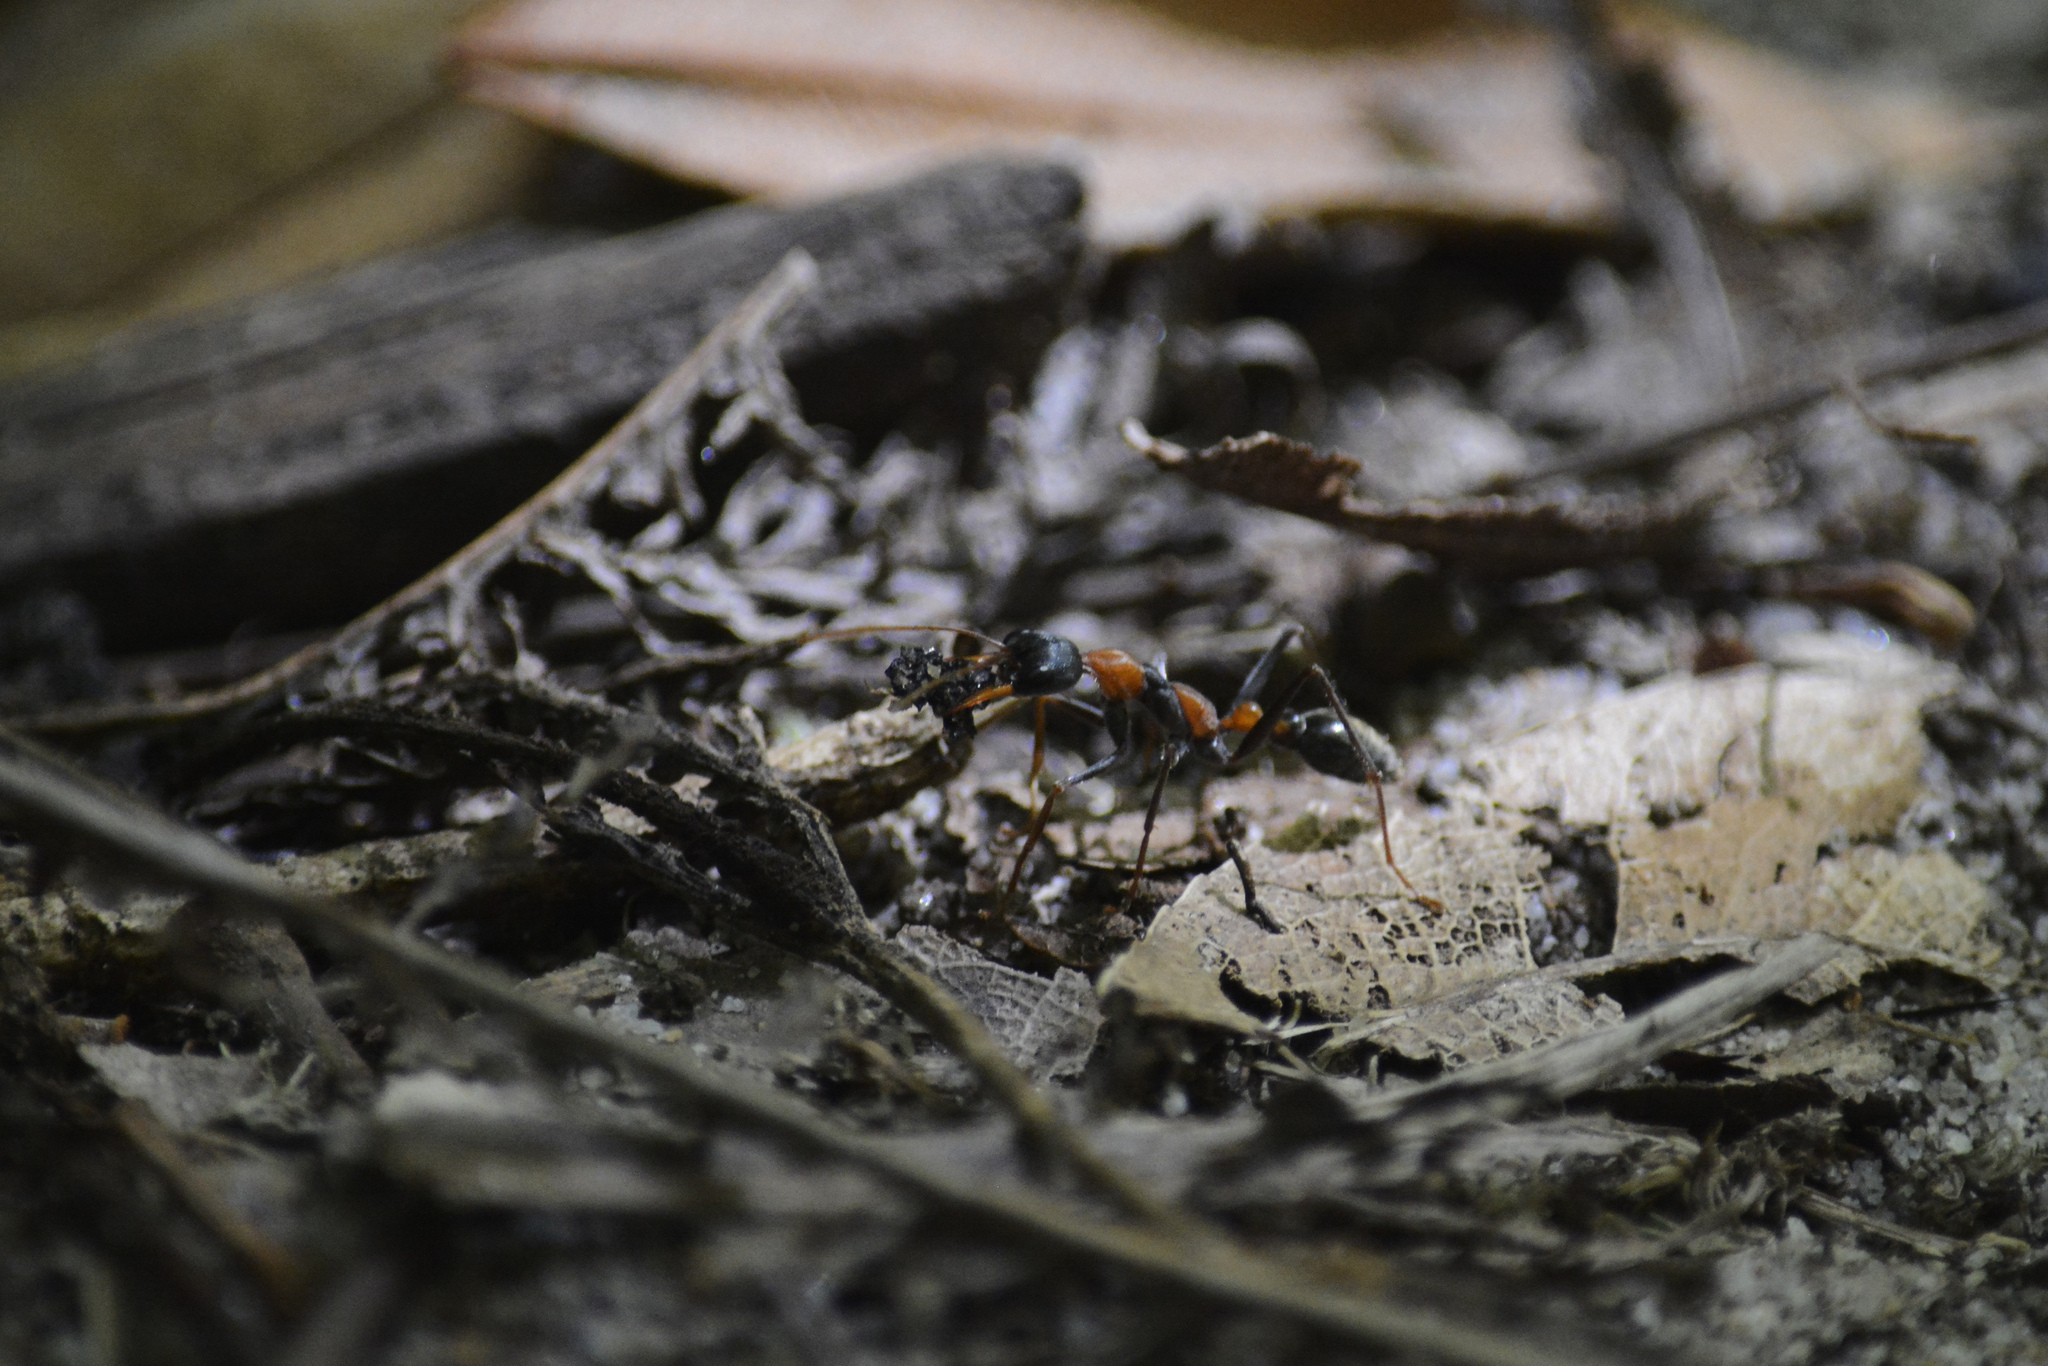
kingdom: Animalia
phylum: Arthropoda
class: Insecta
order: Hymenoptera
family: Formicidae
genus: Myrmecia
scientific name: Myrmecia nigrocincta
